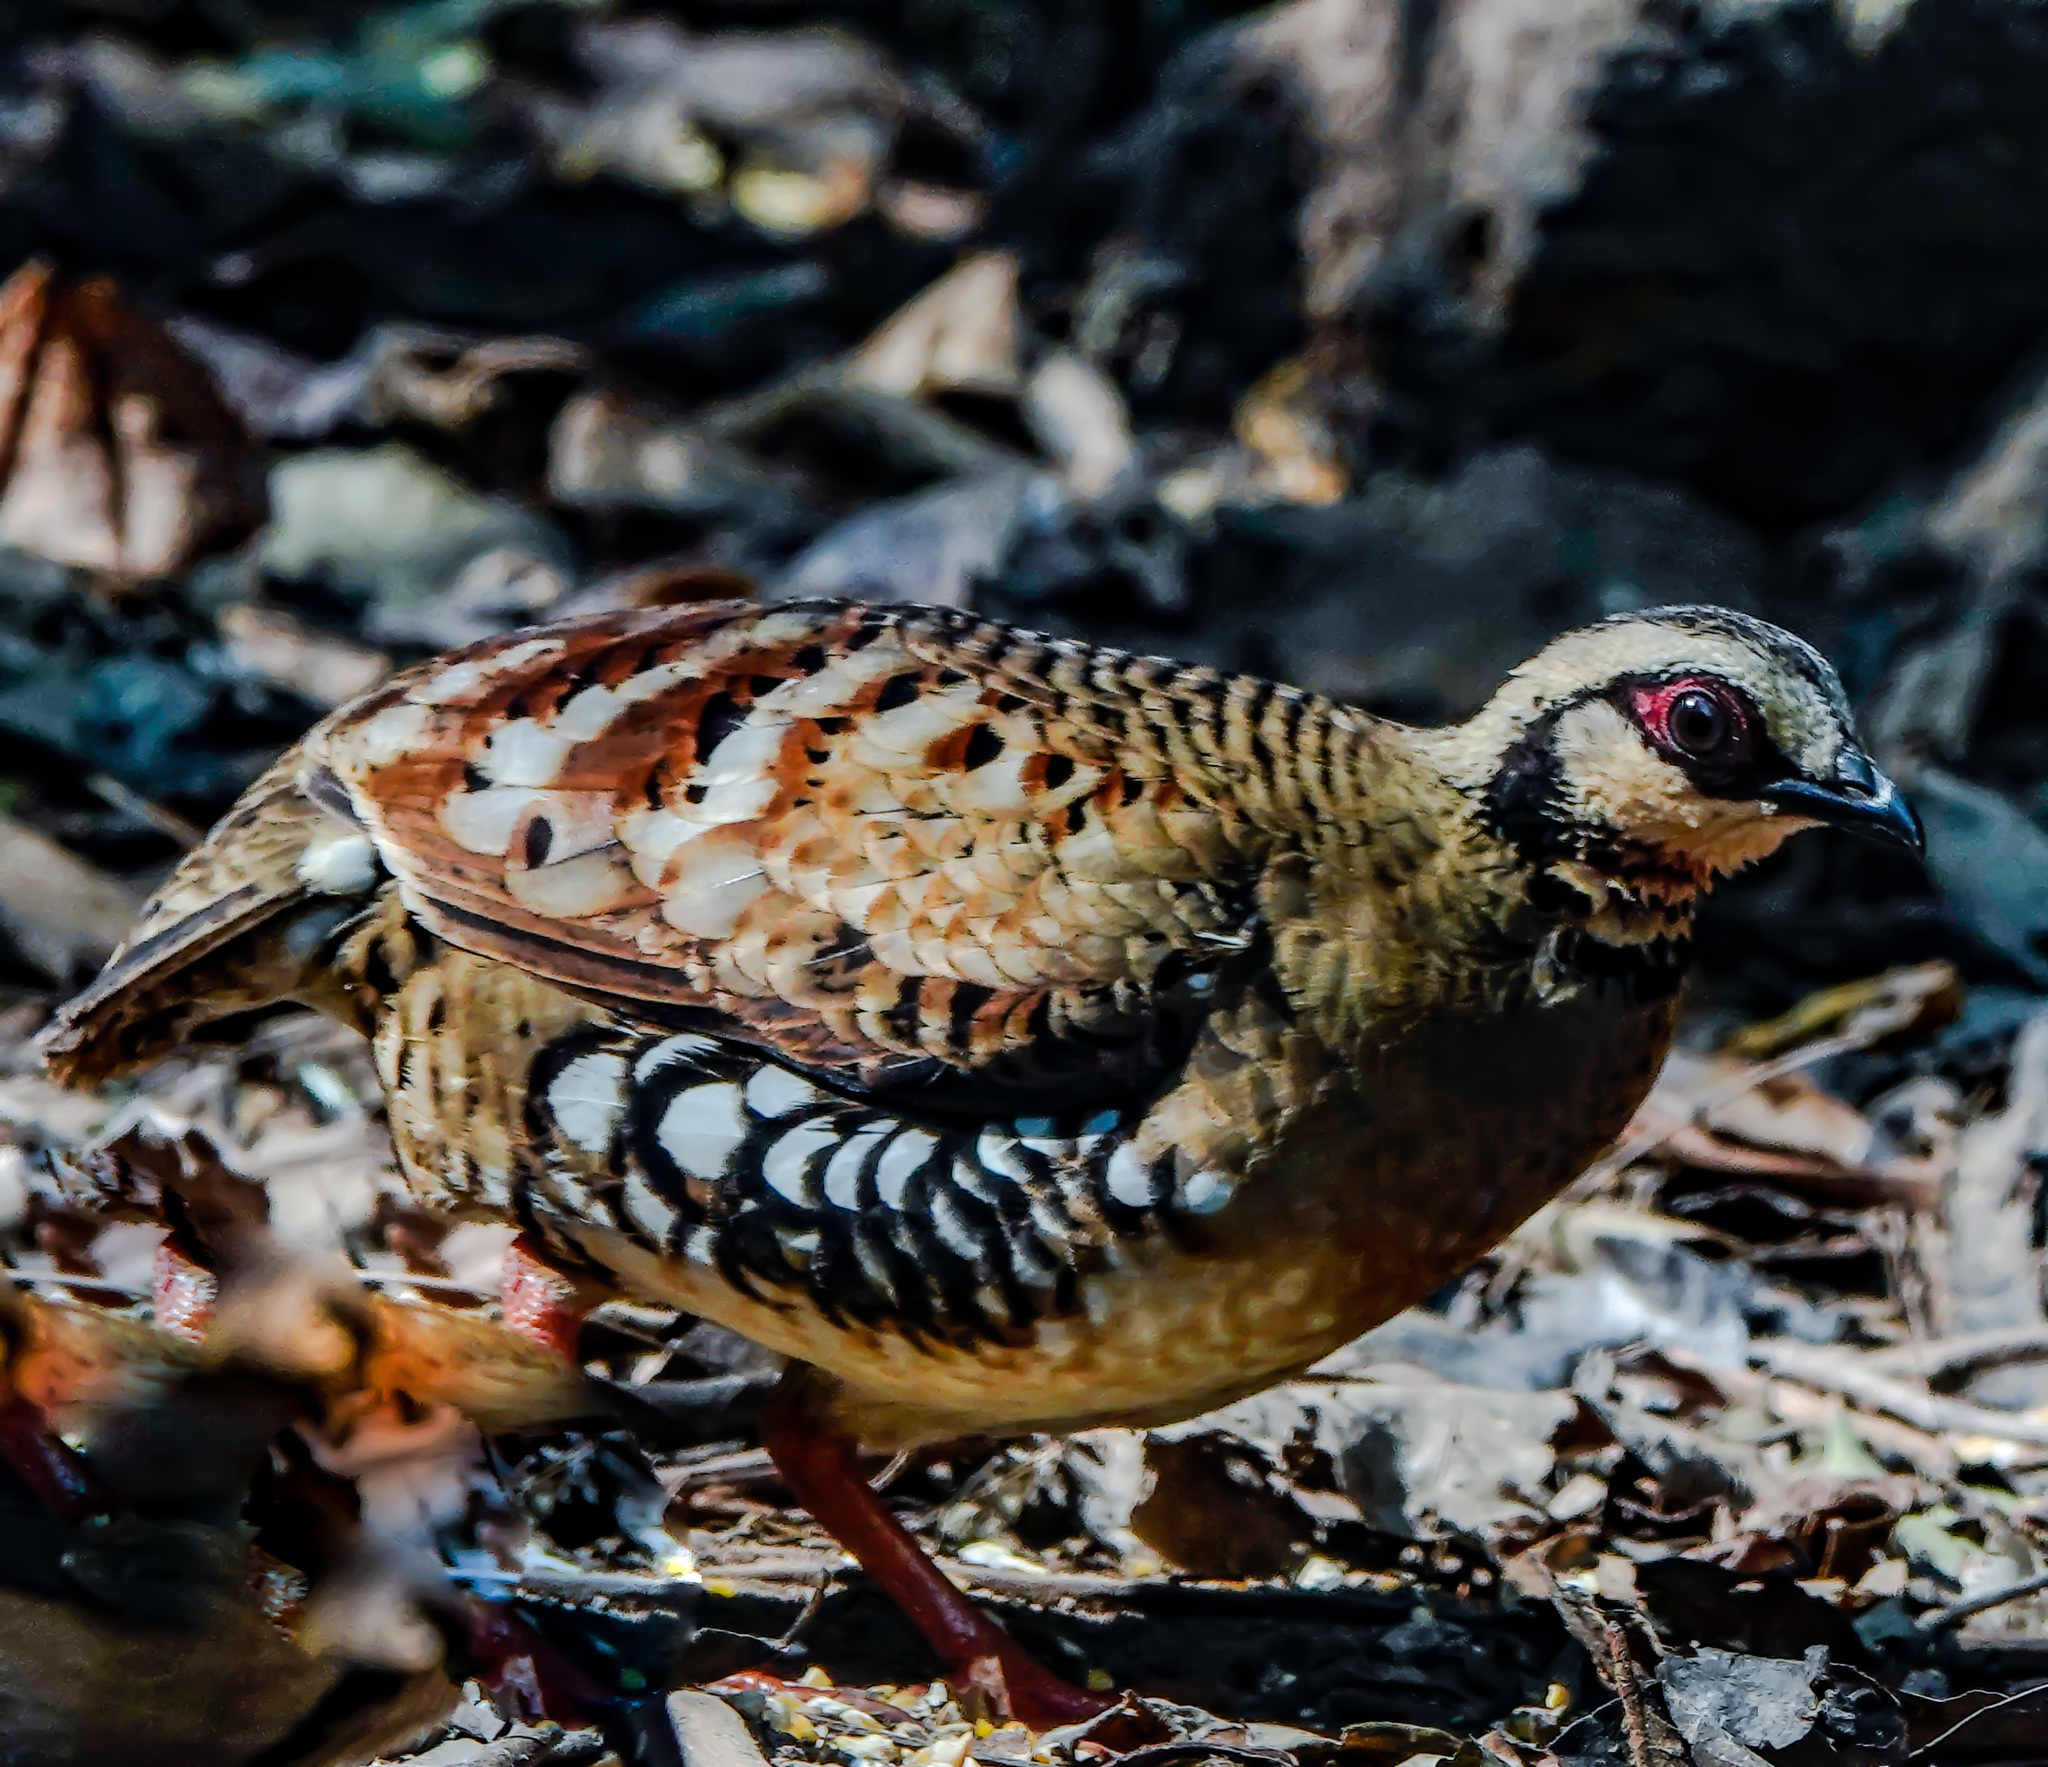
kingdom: Animalia
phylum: Chordata
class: Aves
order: Galliformes
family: Phasianidae
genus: Arborophila
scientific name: Arborophila brunneopectus
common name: Bar-backed partridge
